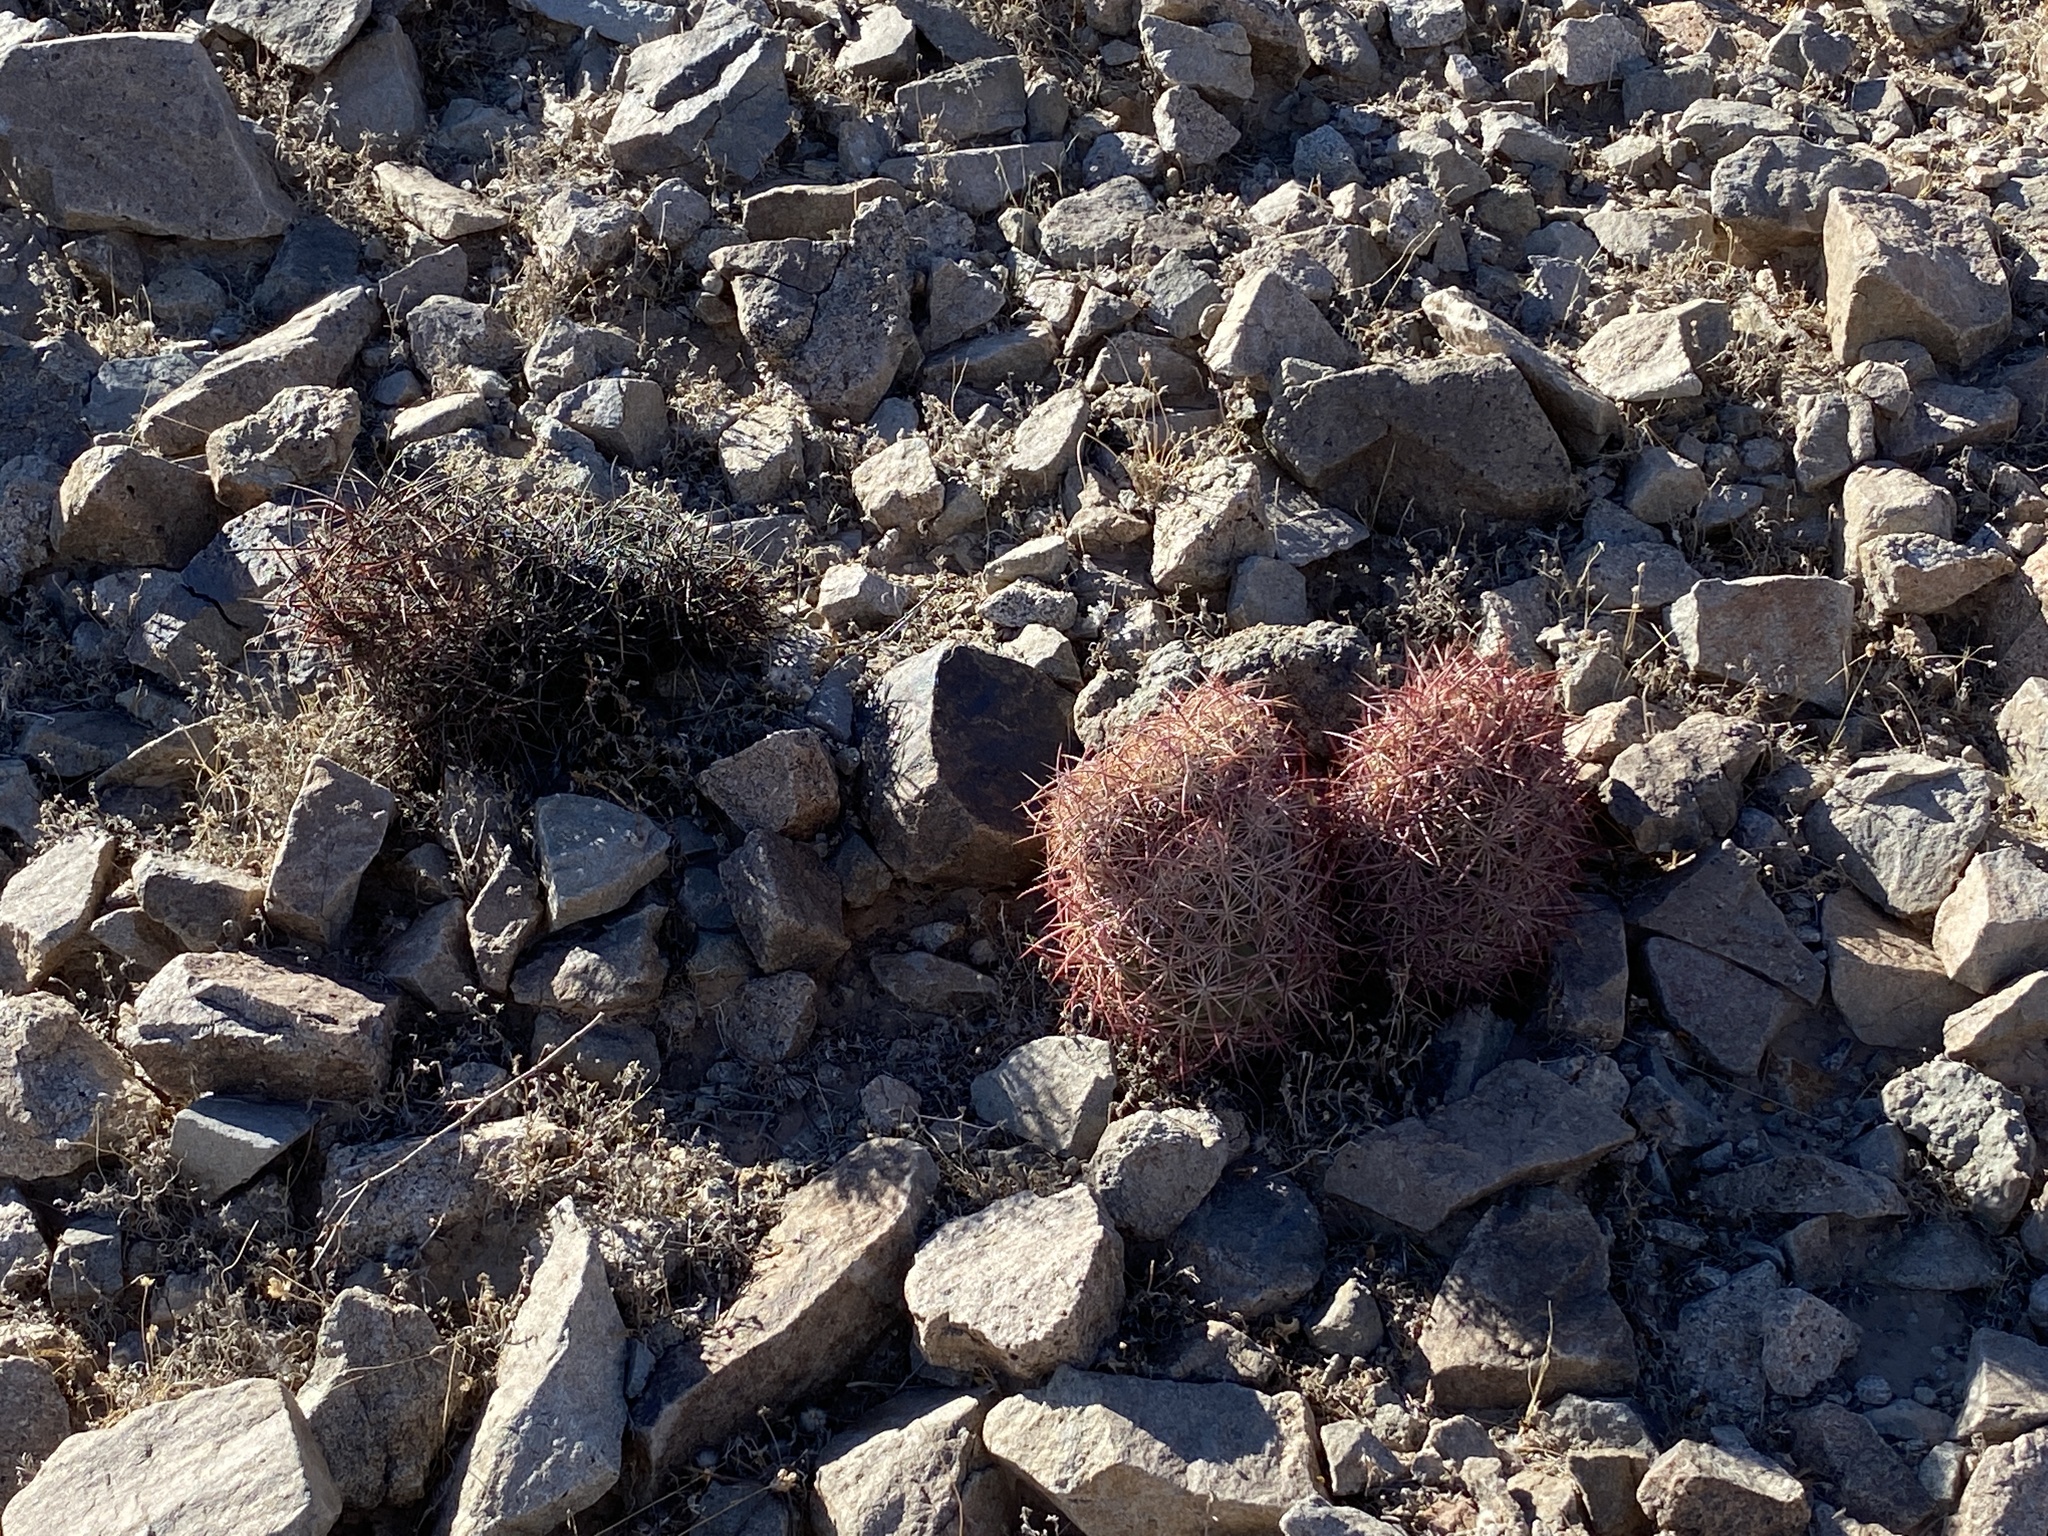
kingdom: Plantae
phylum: Tracheophyta
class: Magnoliopsida
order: Caryophyllales
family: Cactaceae
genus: Sclerocactus
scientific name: Sclerocactus johnsonii
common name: Eight-spine fishhook cactus
